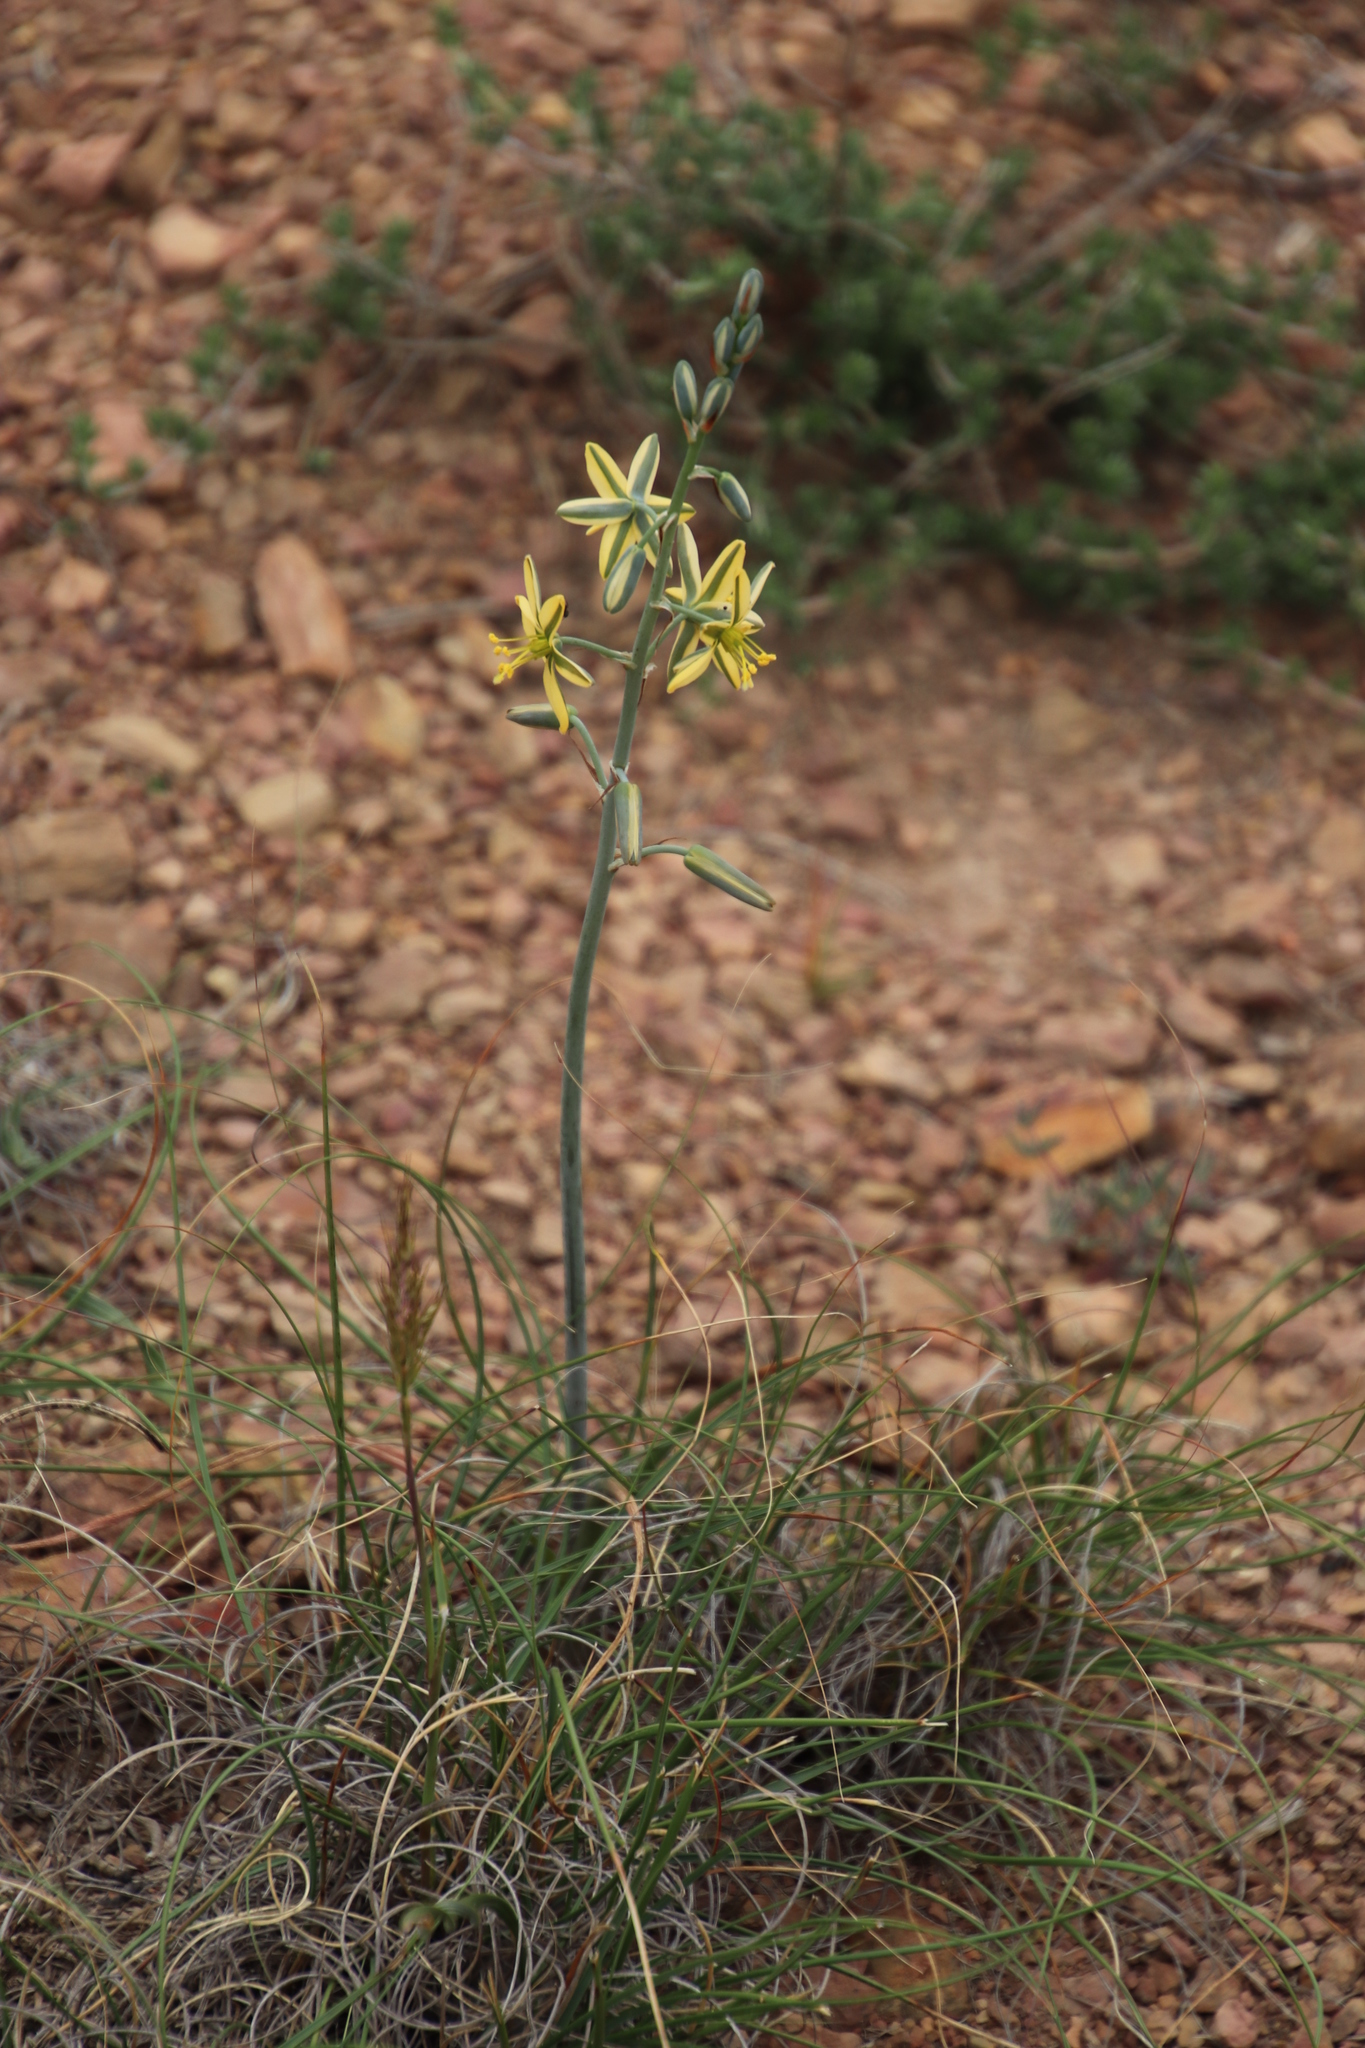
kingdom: Plantae
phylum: Tracheophyta
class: Liliopsida
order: Asparagales
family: Asparagaceae
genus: Albuca
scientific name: Albuca suaveolens
